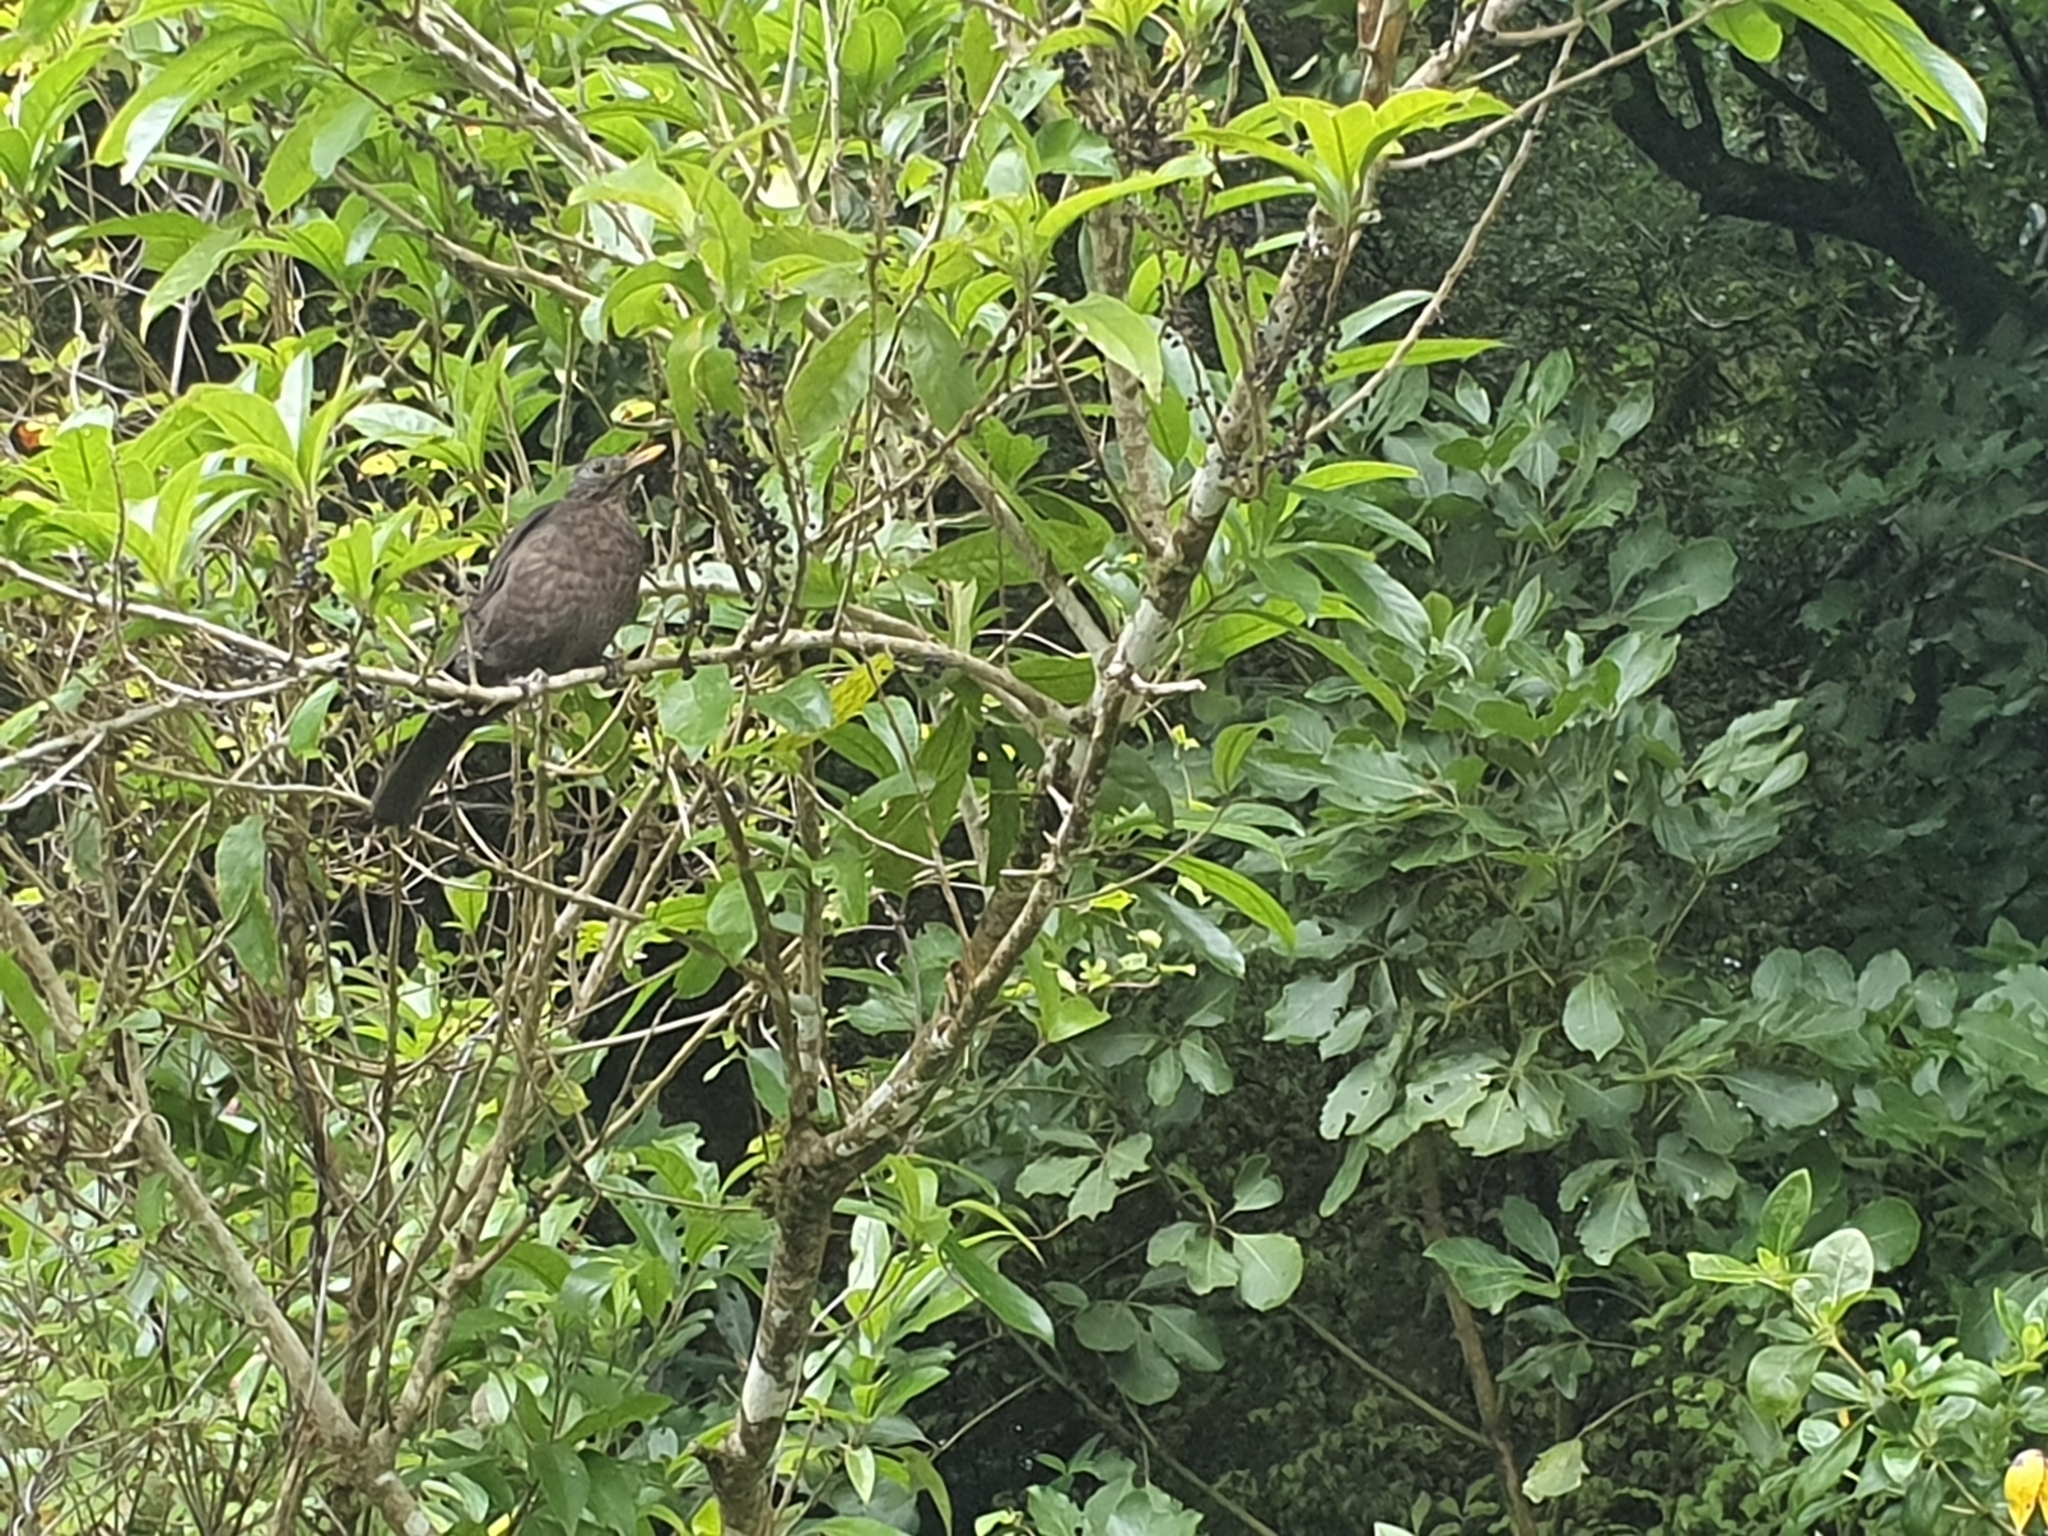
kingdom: Animalia
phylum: Chordata
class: Aves
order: Passeriformes
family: Turdidae
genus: Turdus
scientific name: Turdus merula
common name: Common blackbird
